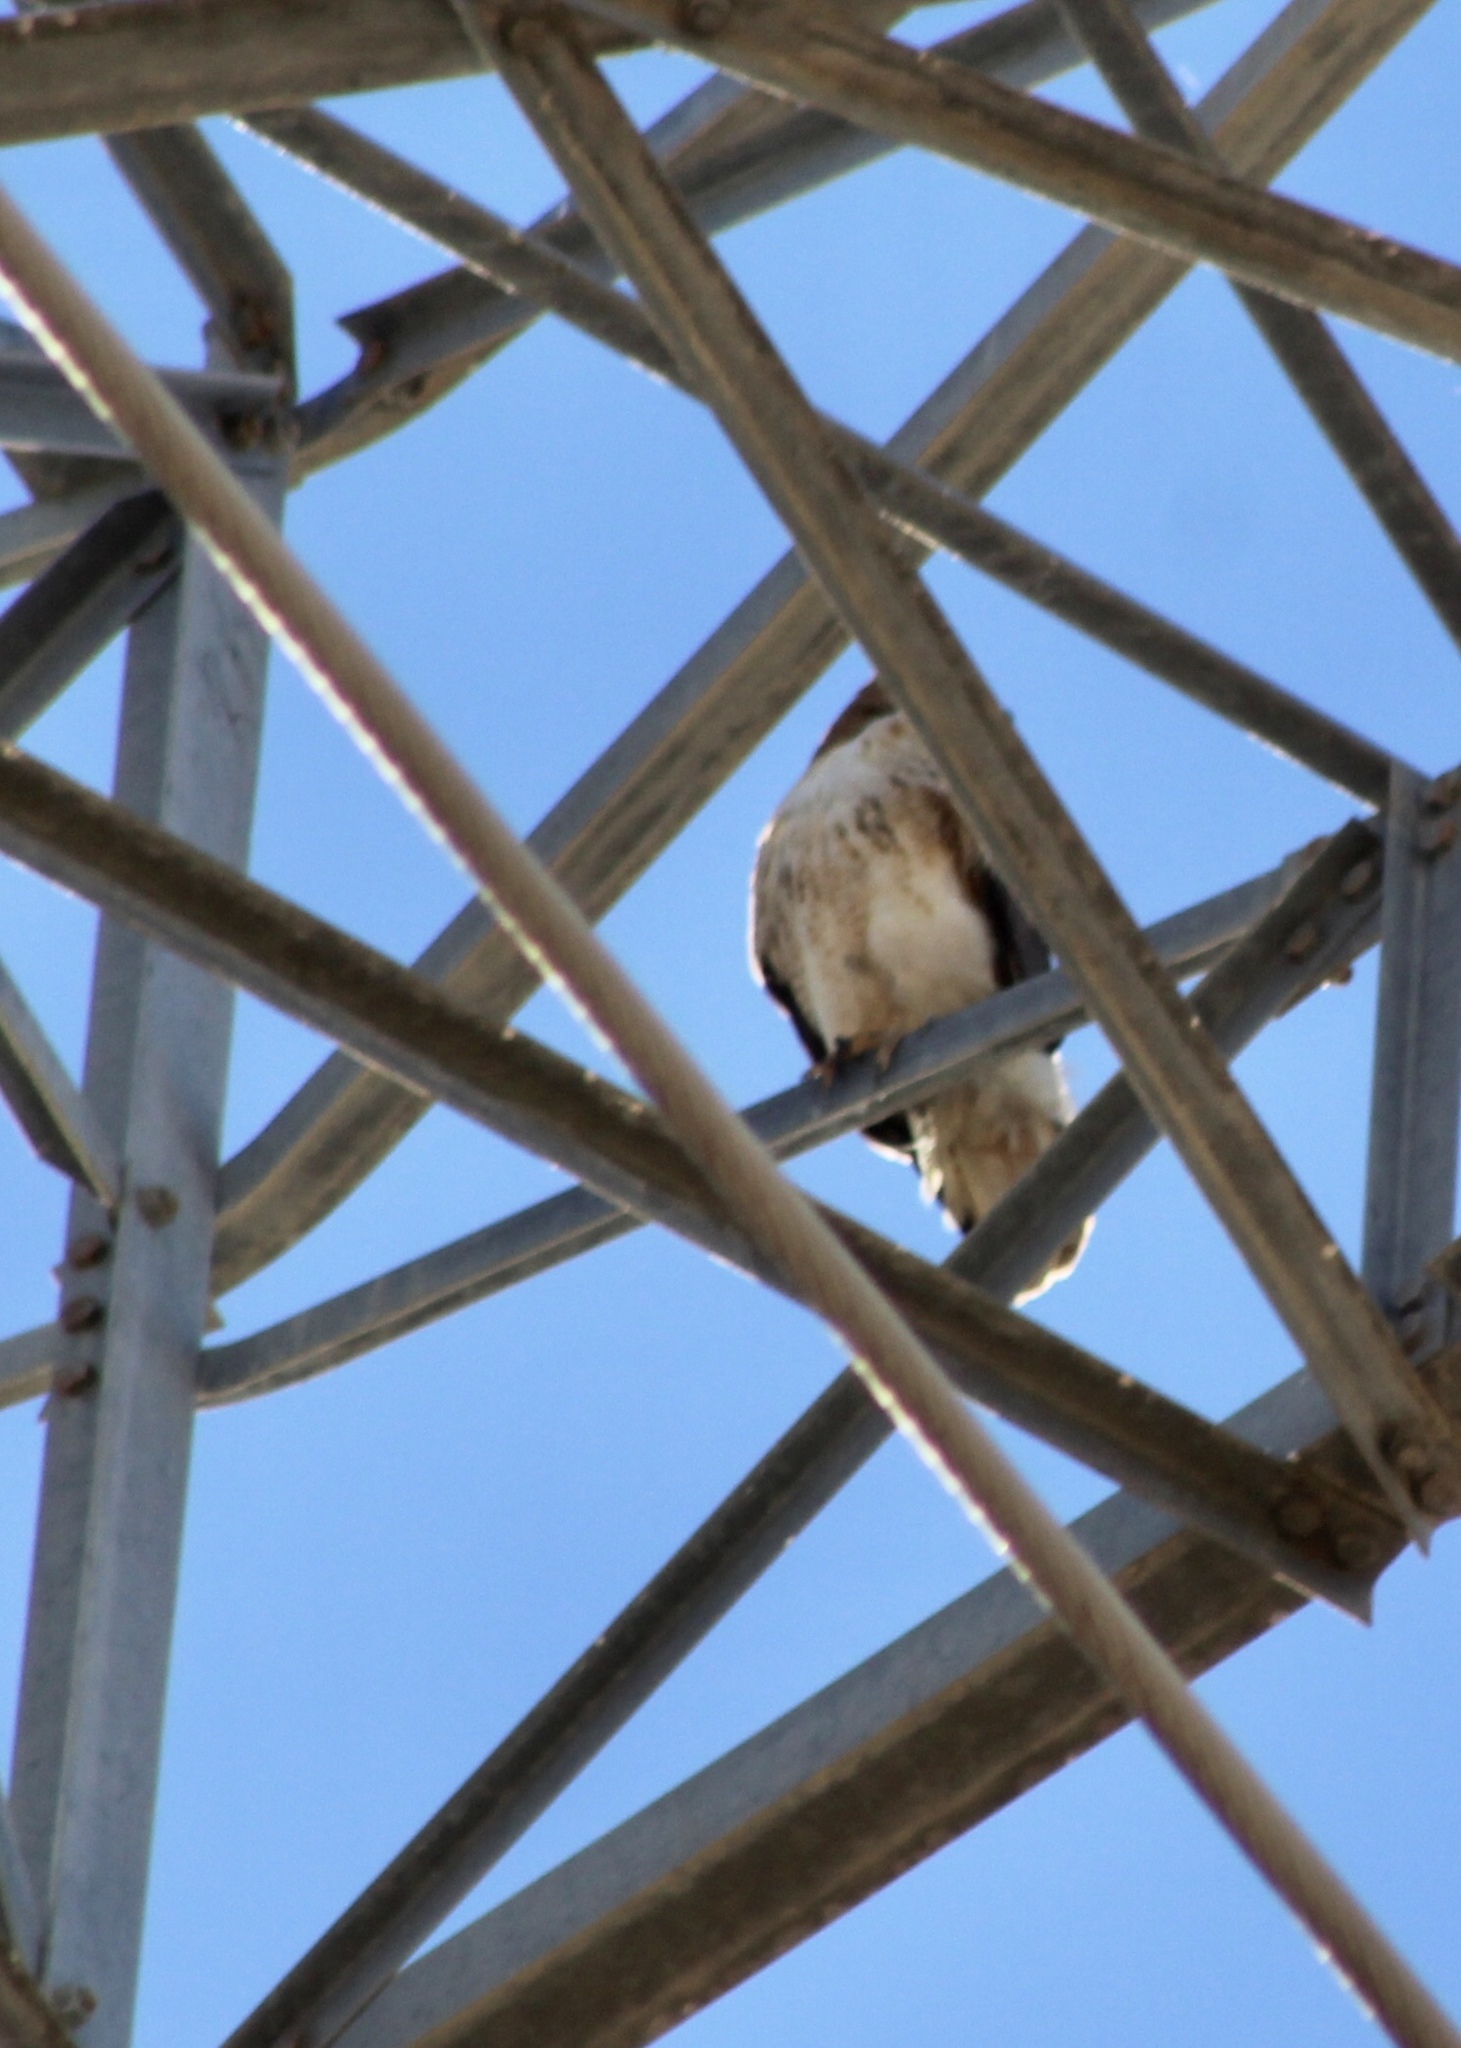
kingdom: Animalia
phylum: Chordata
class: Aves
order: Accipitriformes
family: Accipitridae
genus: Buteo
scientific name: Buteo jamaicensis
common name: Red-tailed hawk
